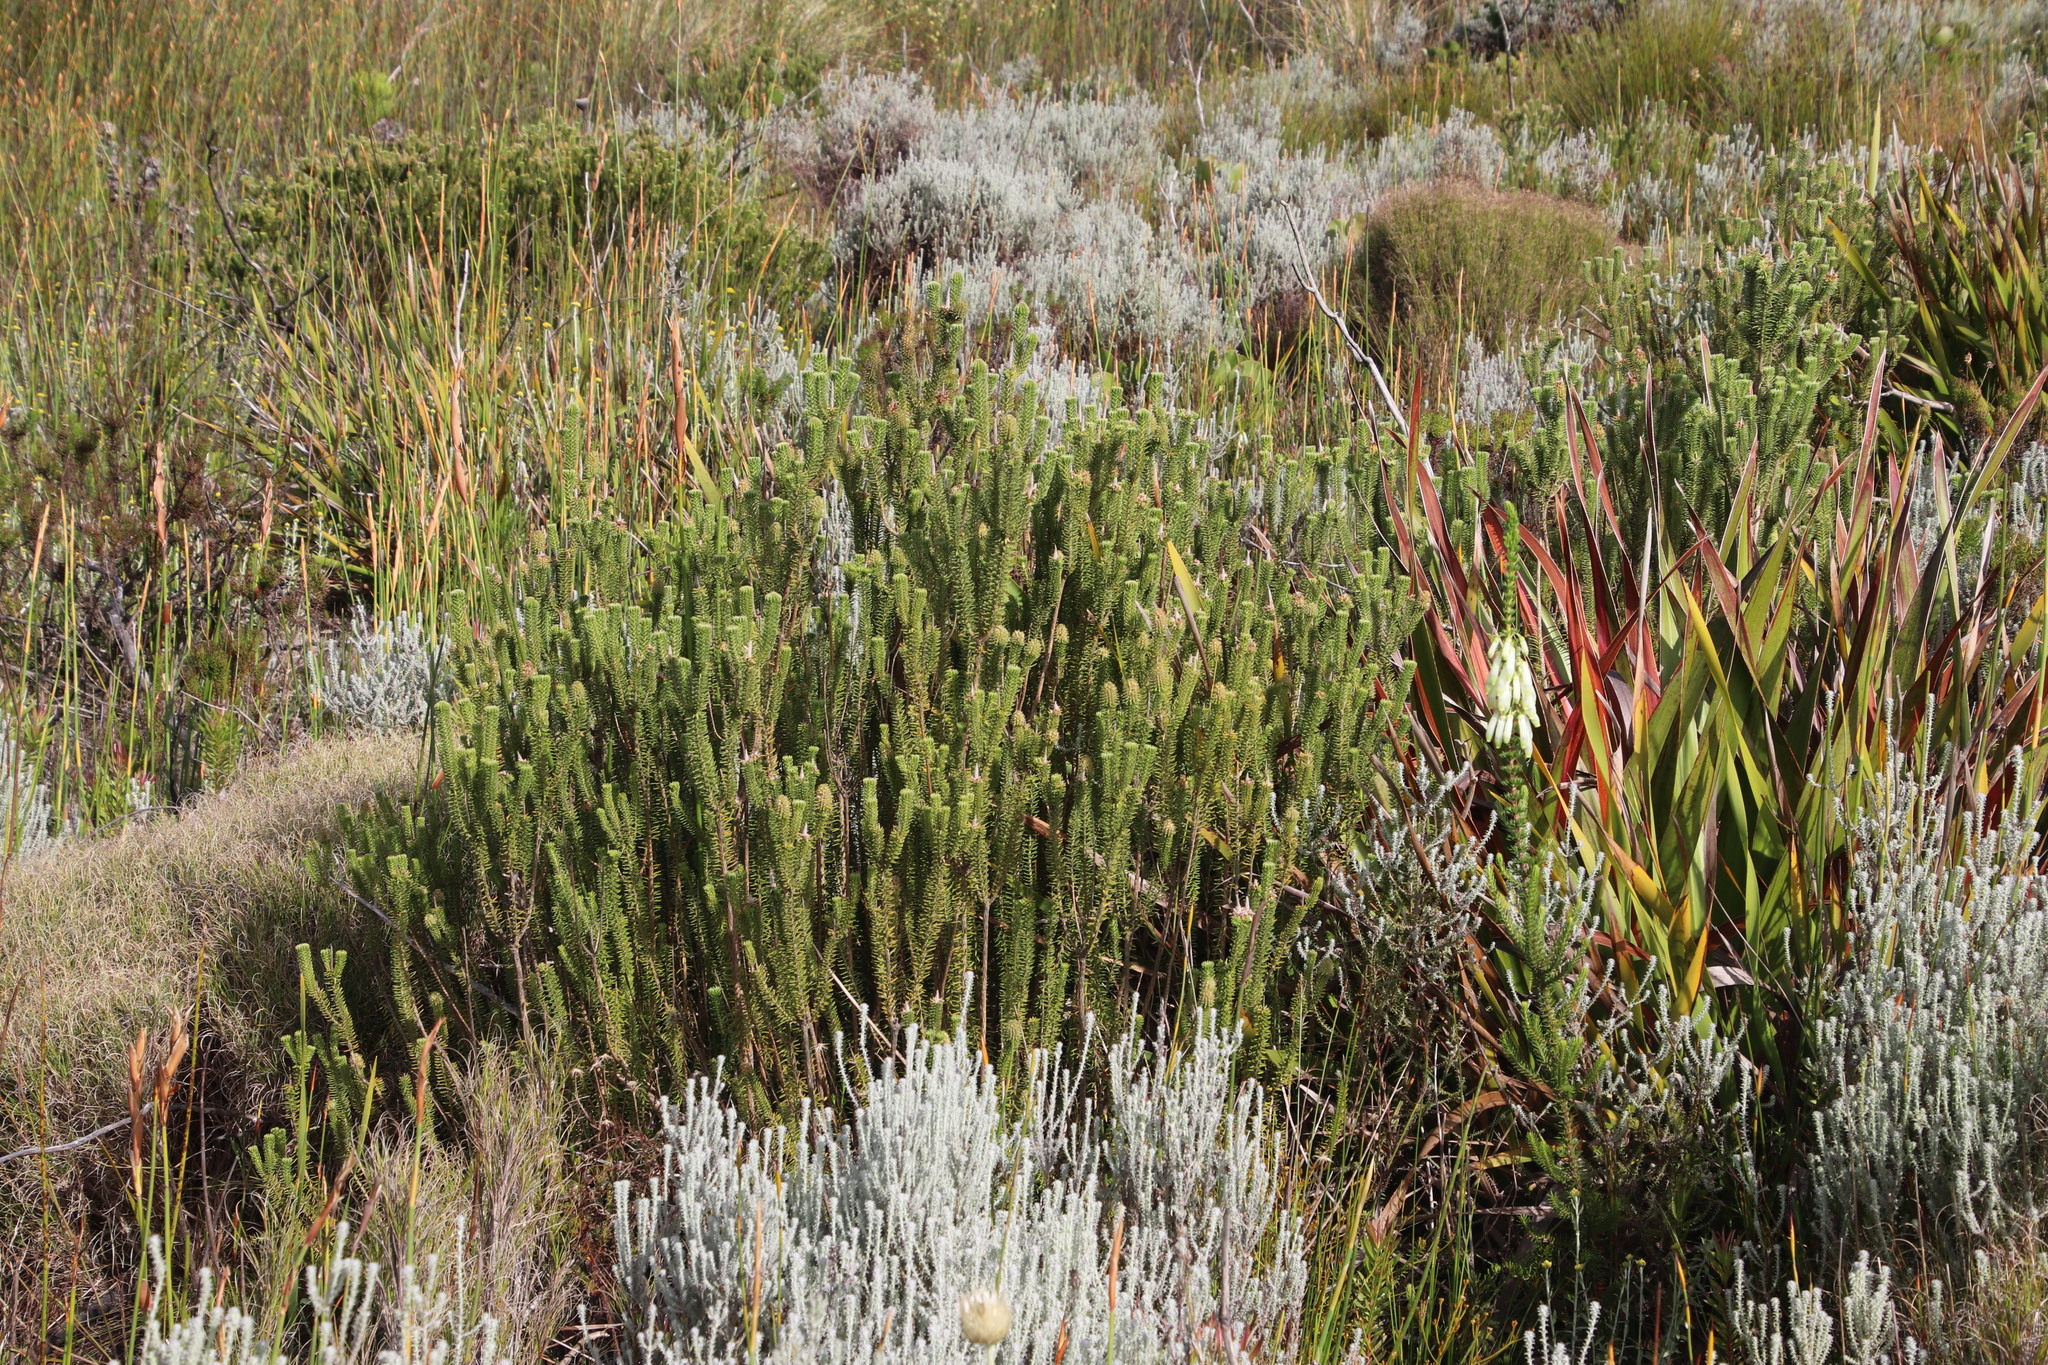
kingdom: Plantae
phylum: Tracheophyta
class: Magnoliopsida
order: Lamiales
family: Stilbaceae
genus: Stilbe
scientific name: Stilbe vestita
